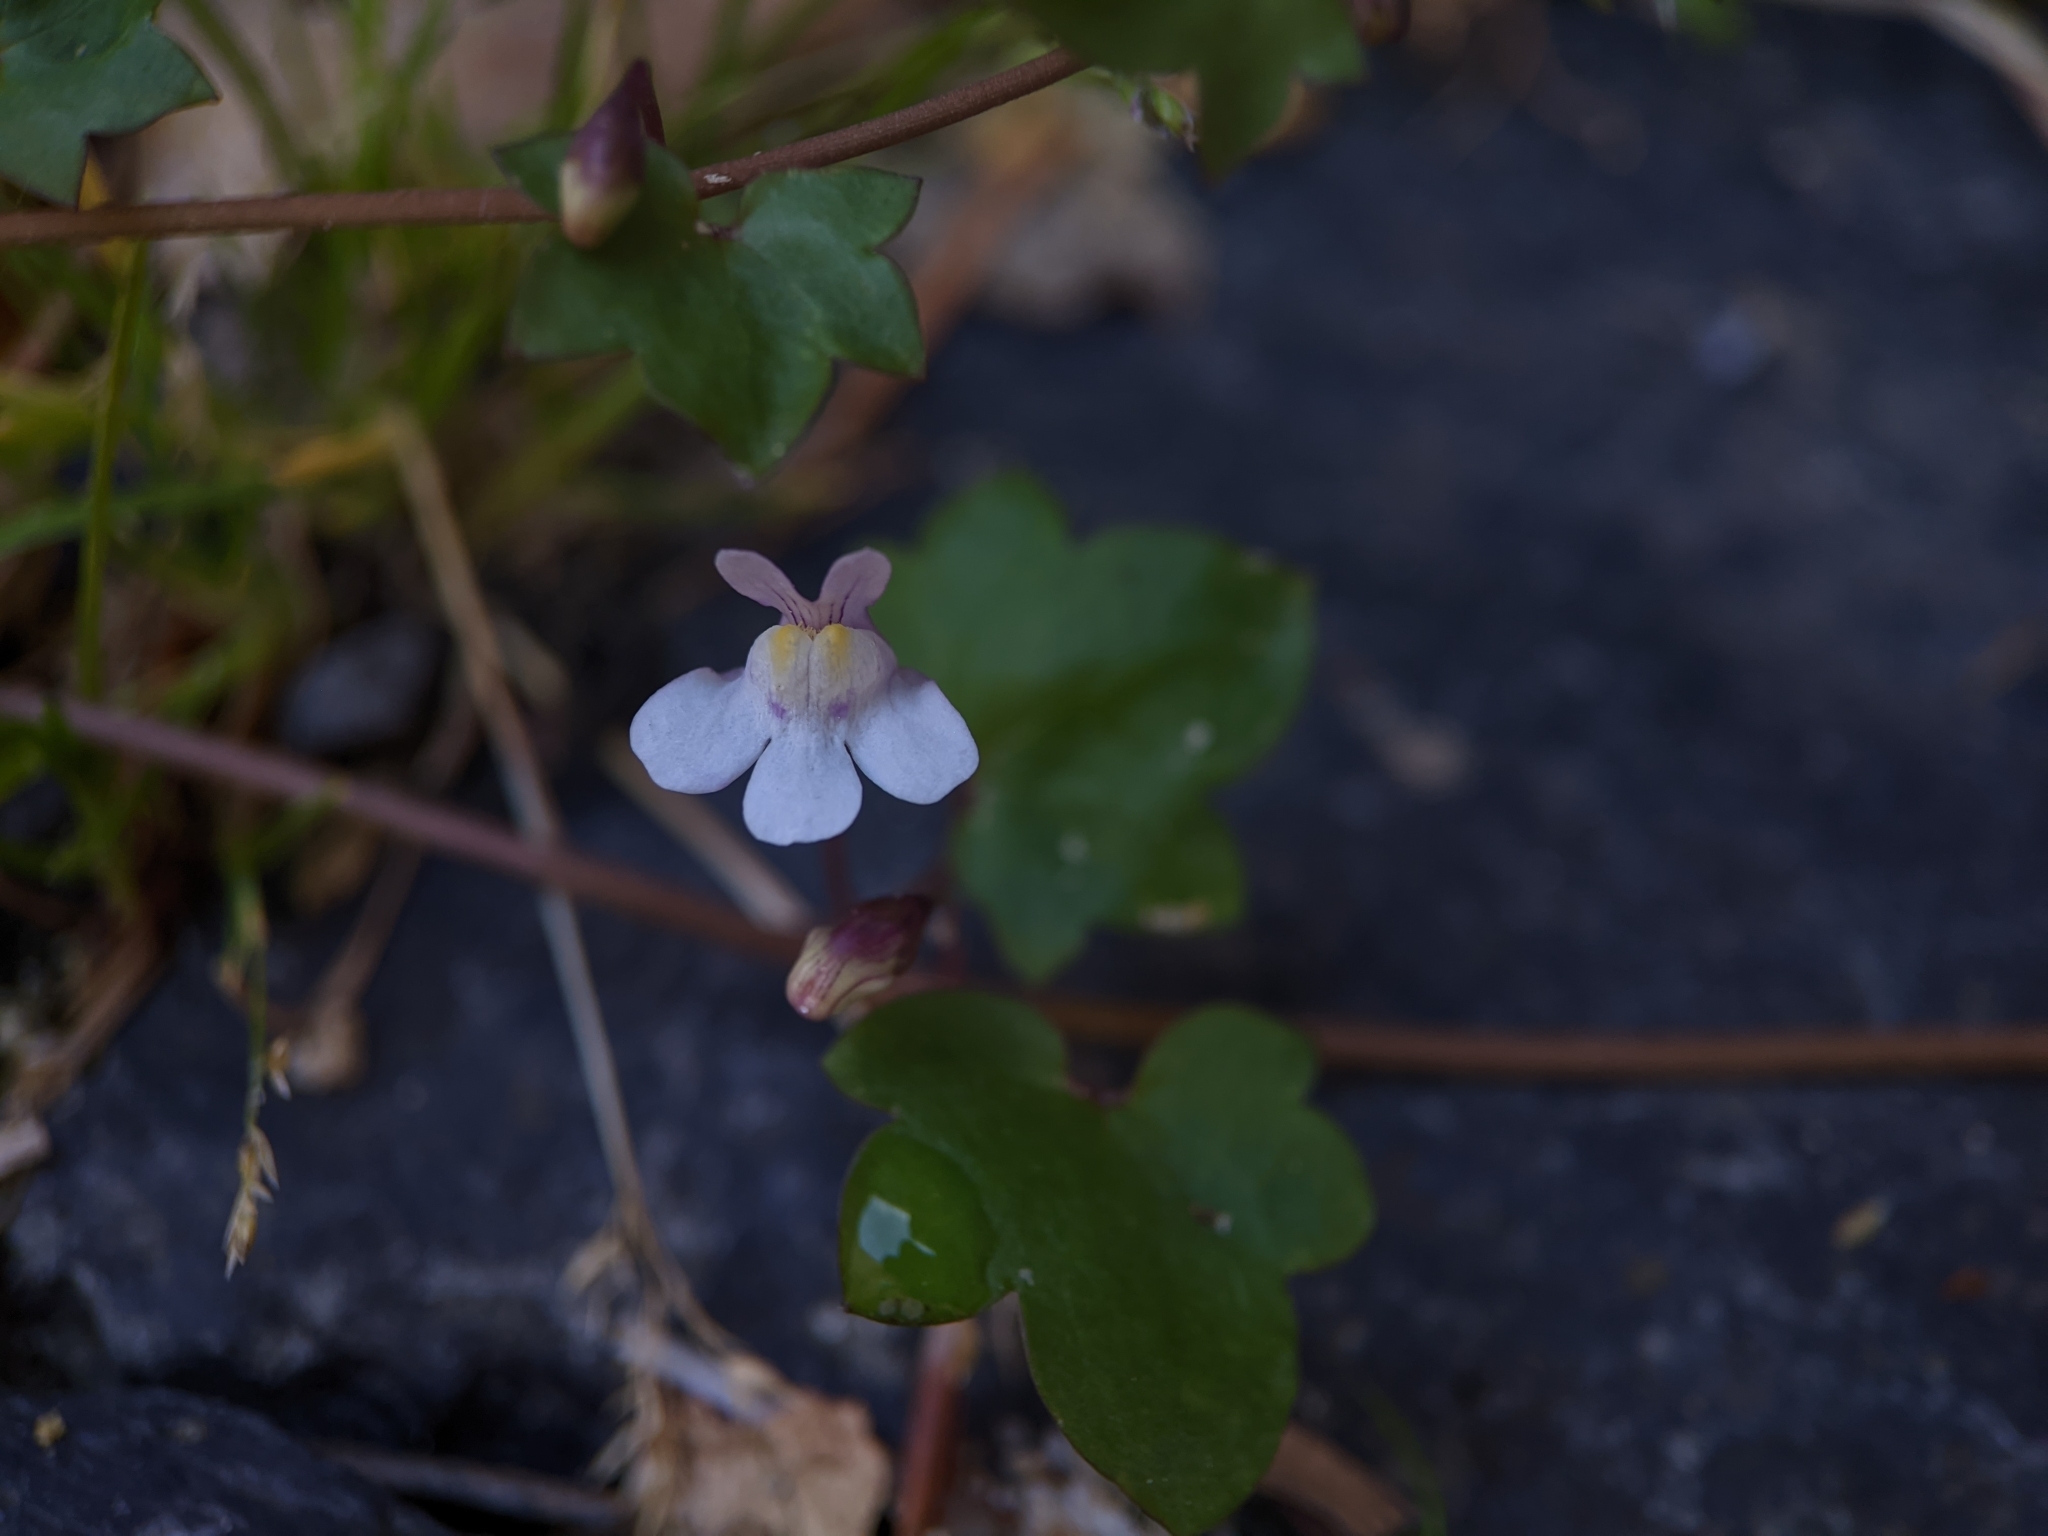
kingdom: Plantae
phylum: Tracheophyta
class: Magnoliopsida
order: Lamiales
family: Plantaginaceae
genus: Cymbalaria
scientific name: Cymbalaria muralis
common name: Ivy-leaved toadflax
